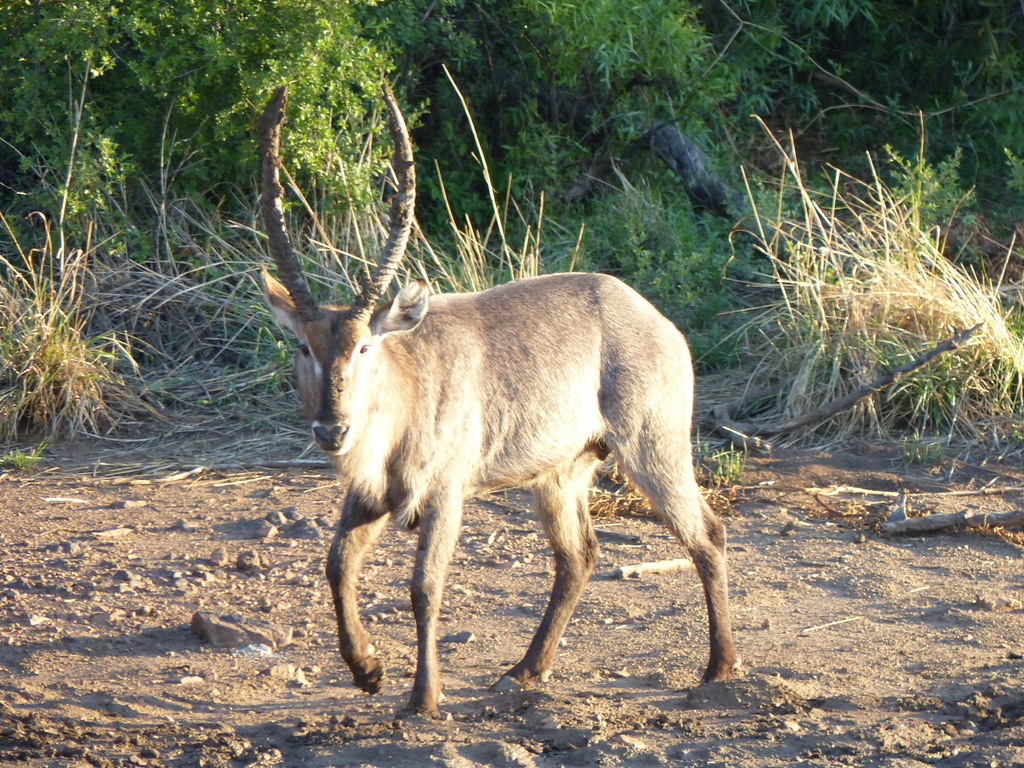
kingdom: Animalia
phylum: Chordata
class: Mammalia
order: Artiodactyla
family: Bovidae
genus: Kobus
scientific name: Kobus ellipsiprymnus
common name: Waterbuck
